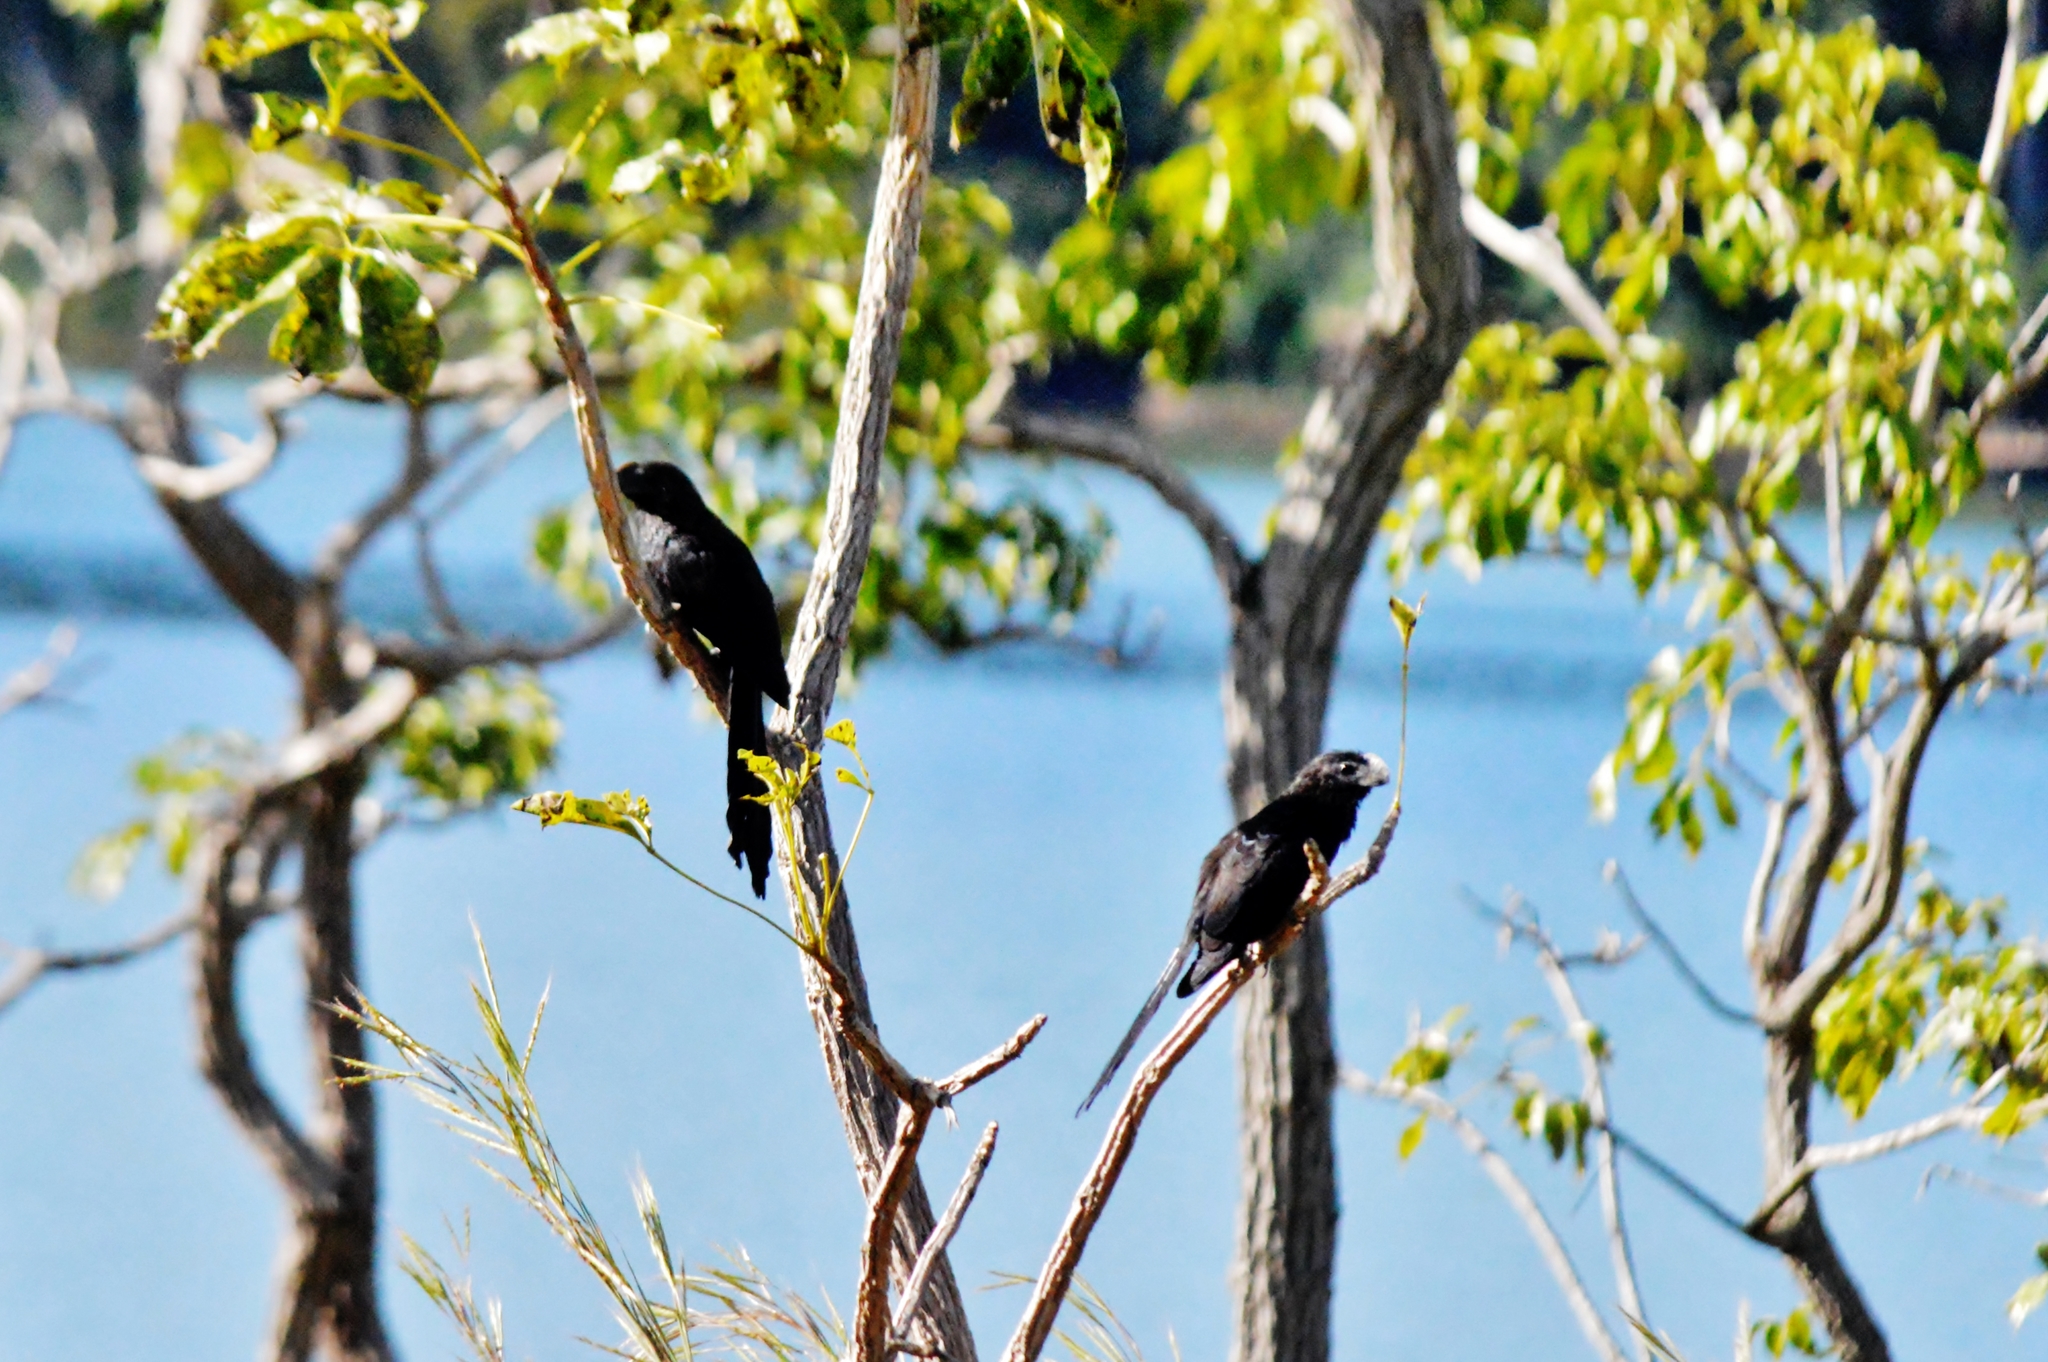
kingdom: Animalia
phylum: Chordata
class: Aves
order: Cuculiformes
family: Cuculidae
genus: Crotophaga
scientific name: Crotophaga ani
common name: Smooth-billed ani
